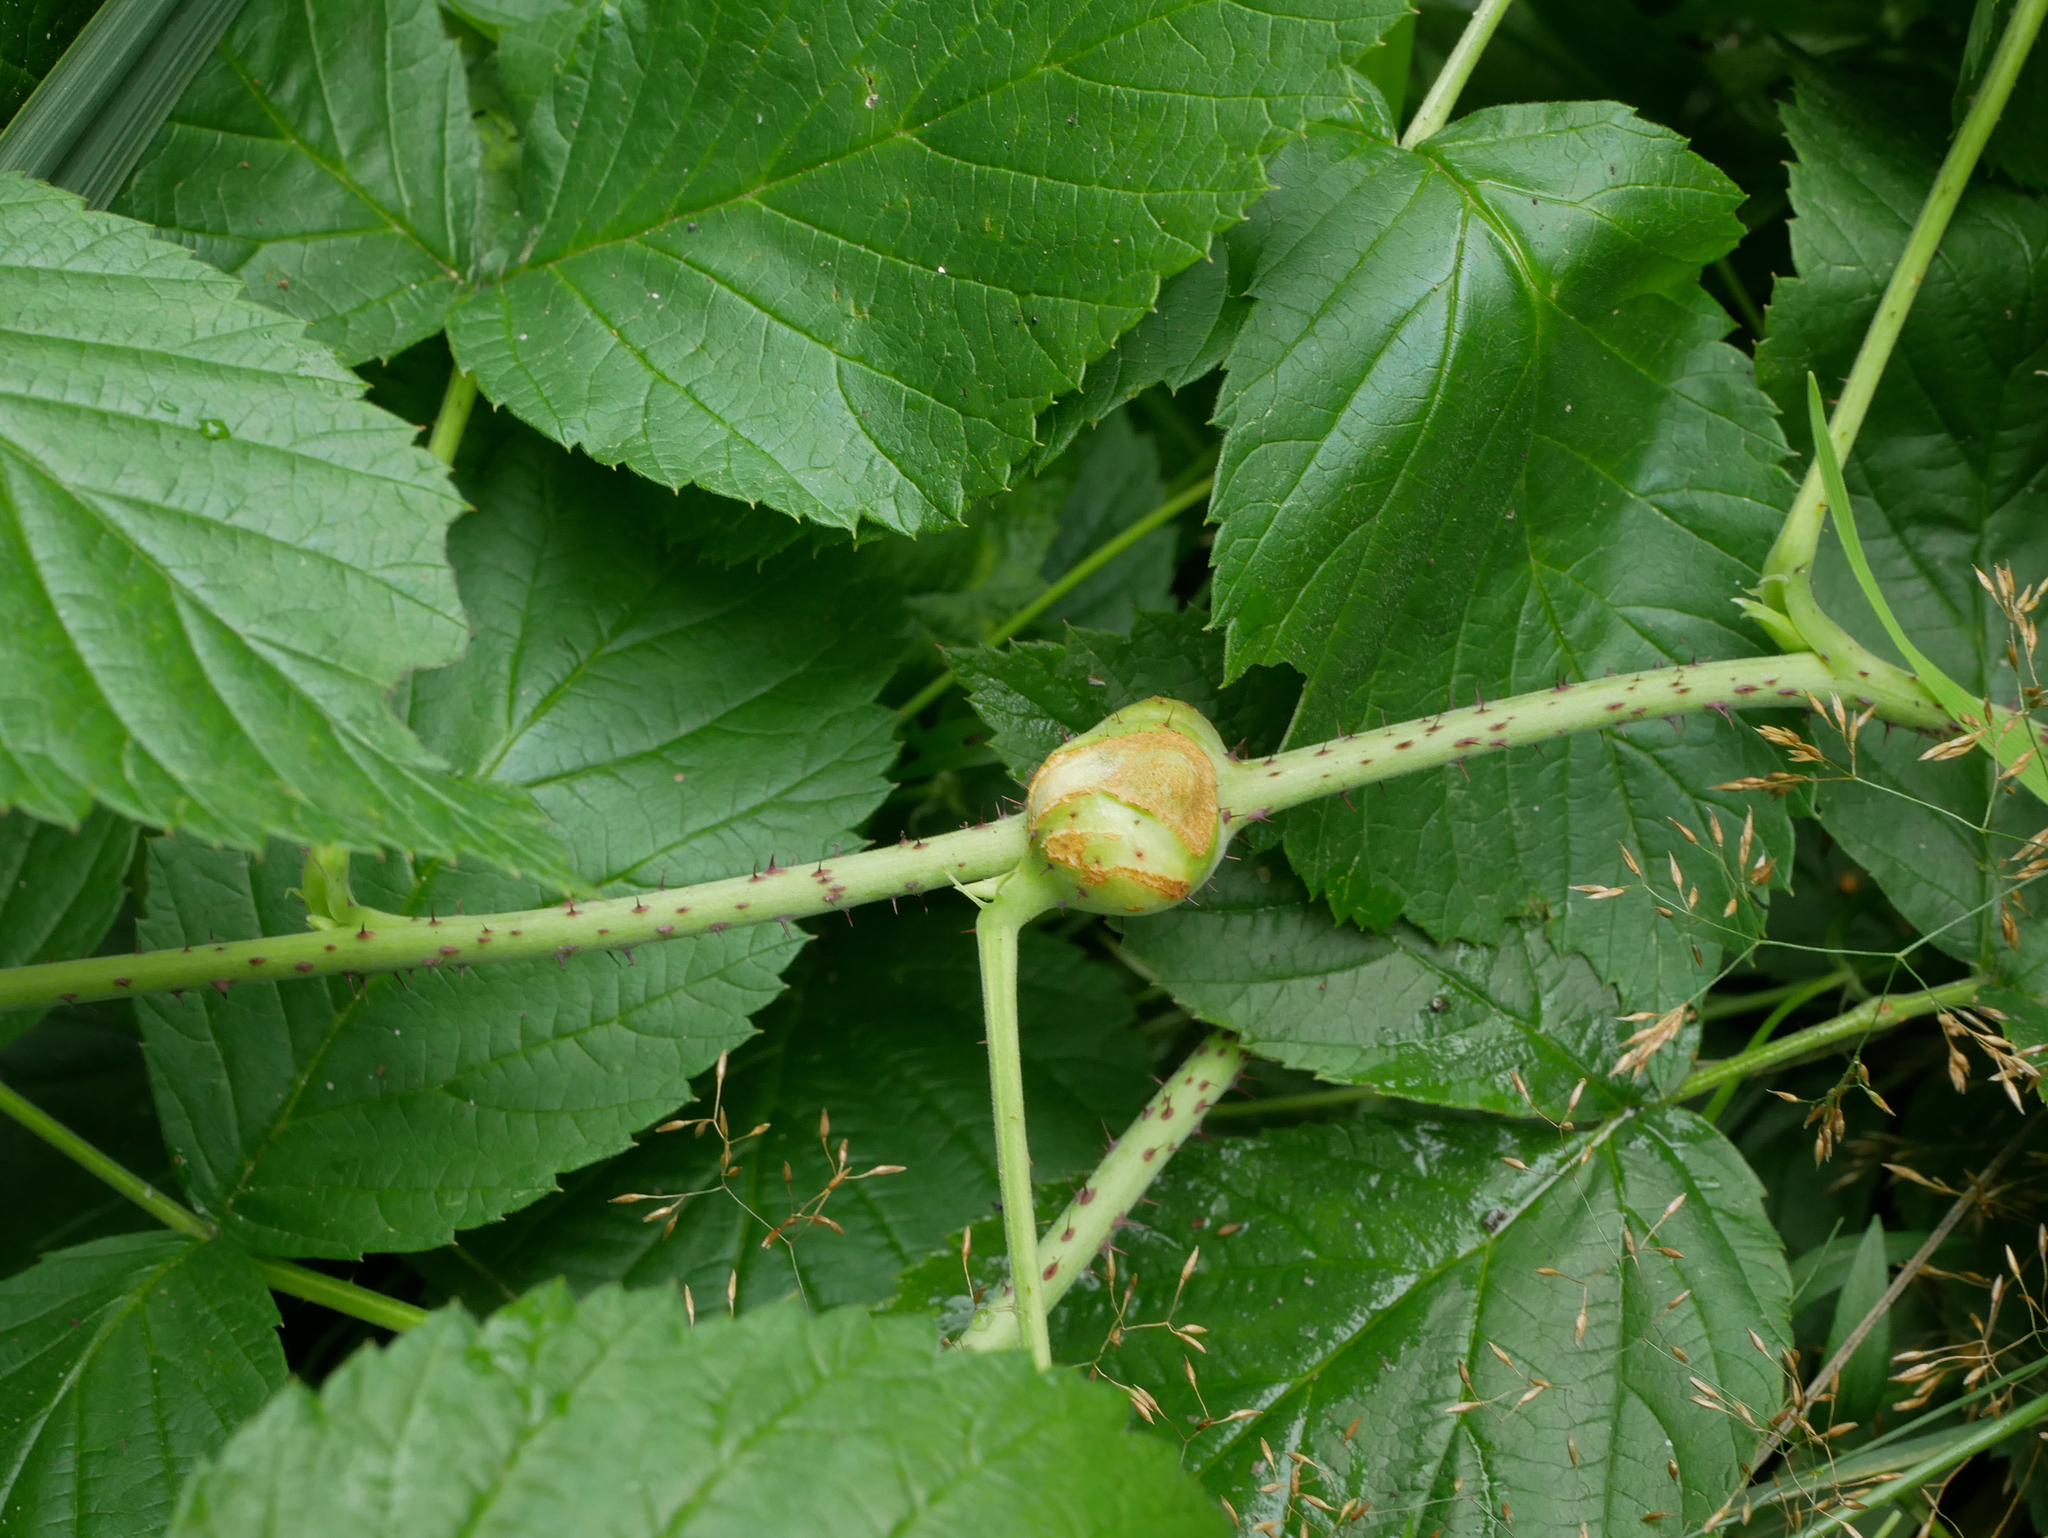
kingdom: Animalia
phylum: Arthropoda
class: Insecta
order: Diptera
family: Cecidomyiidae
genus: Lasioptera
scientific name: Lasioptera rubi
